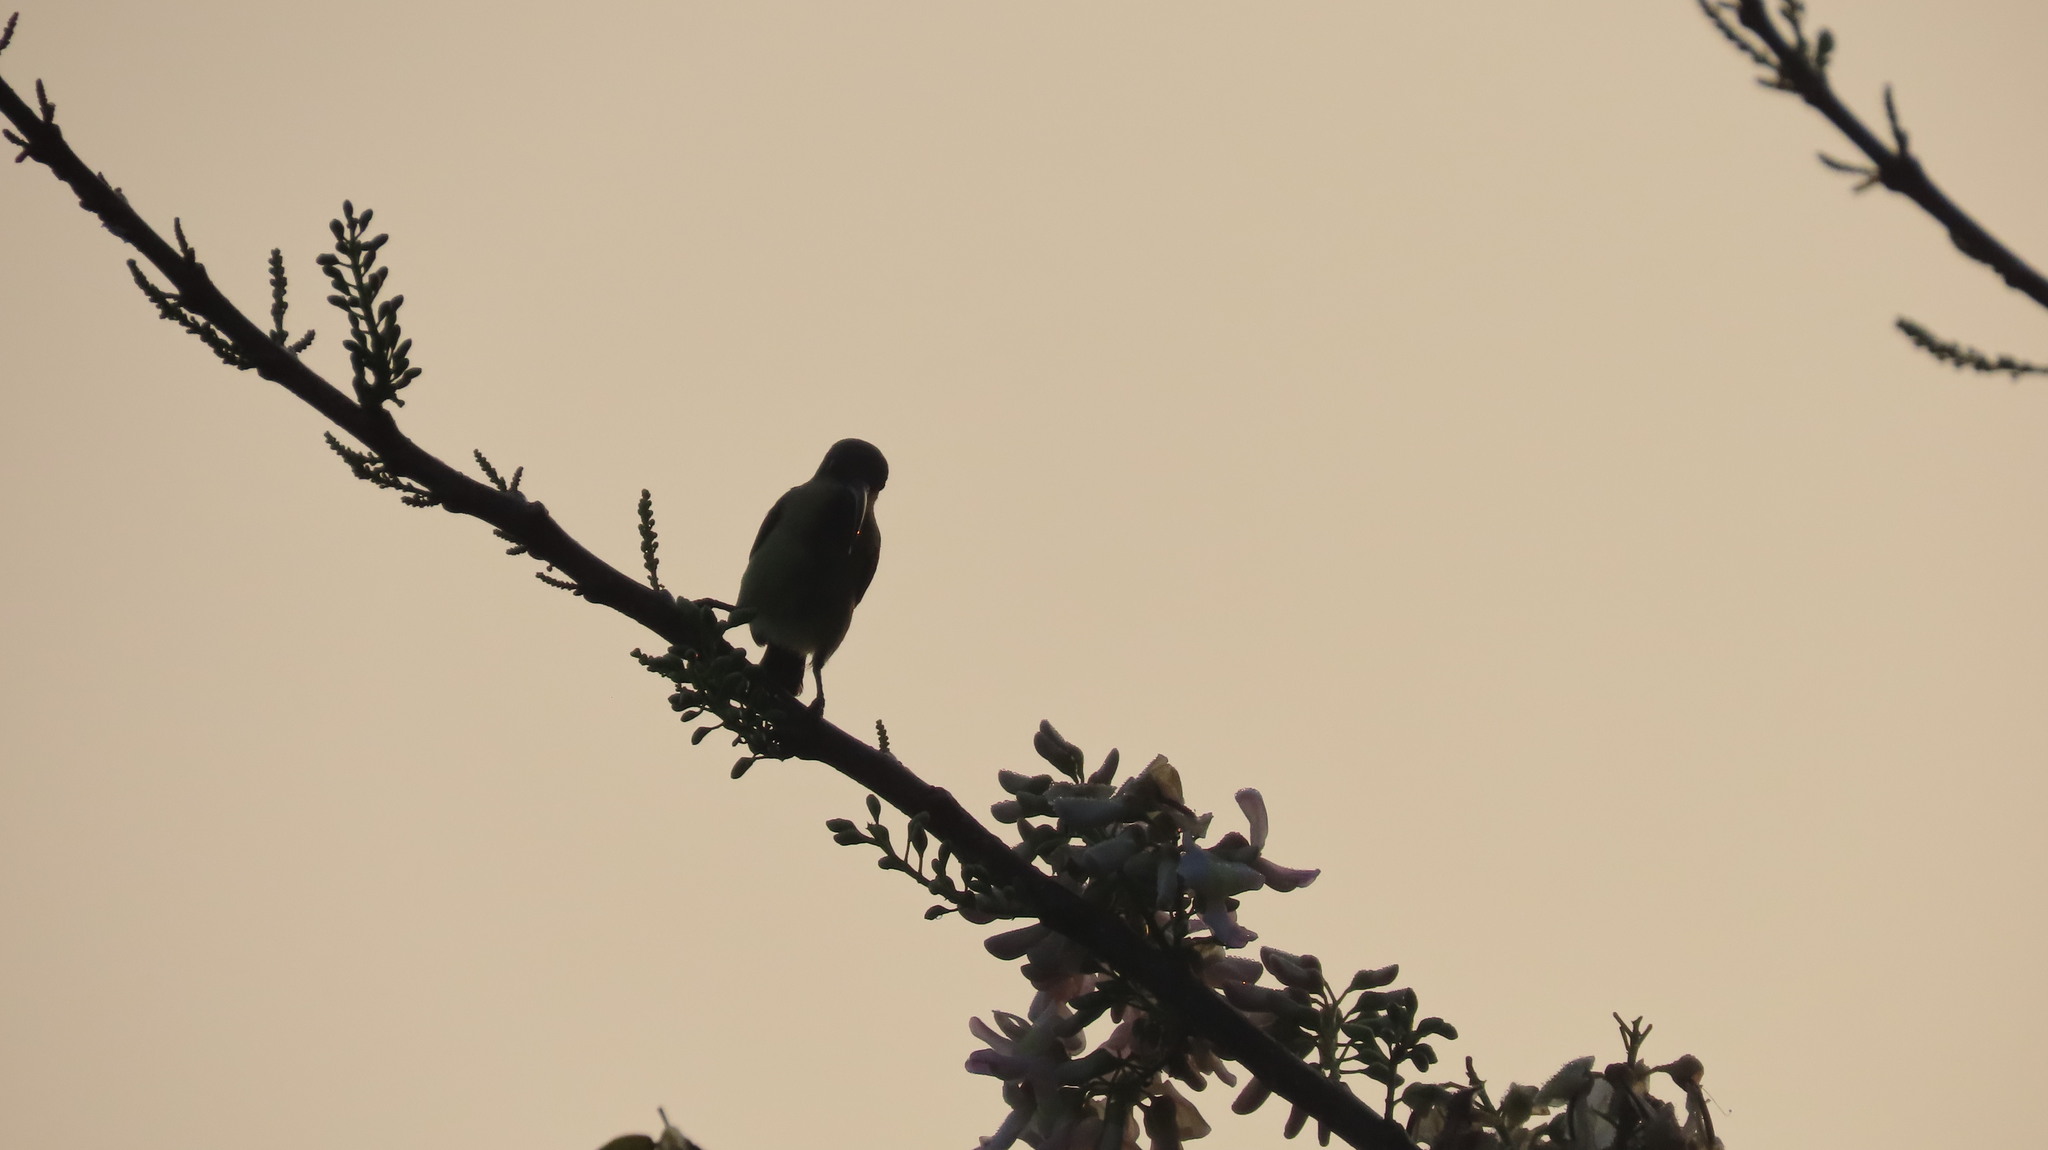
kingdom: Animalia
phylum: Chordata
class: Aves
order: Passeriformes
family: Nectariniidae
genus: Cinnyris
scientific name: Cinnyris lotenius
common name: Loten's sunbird
